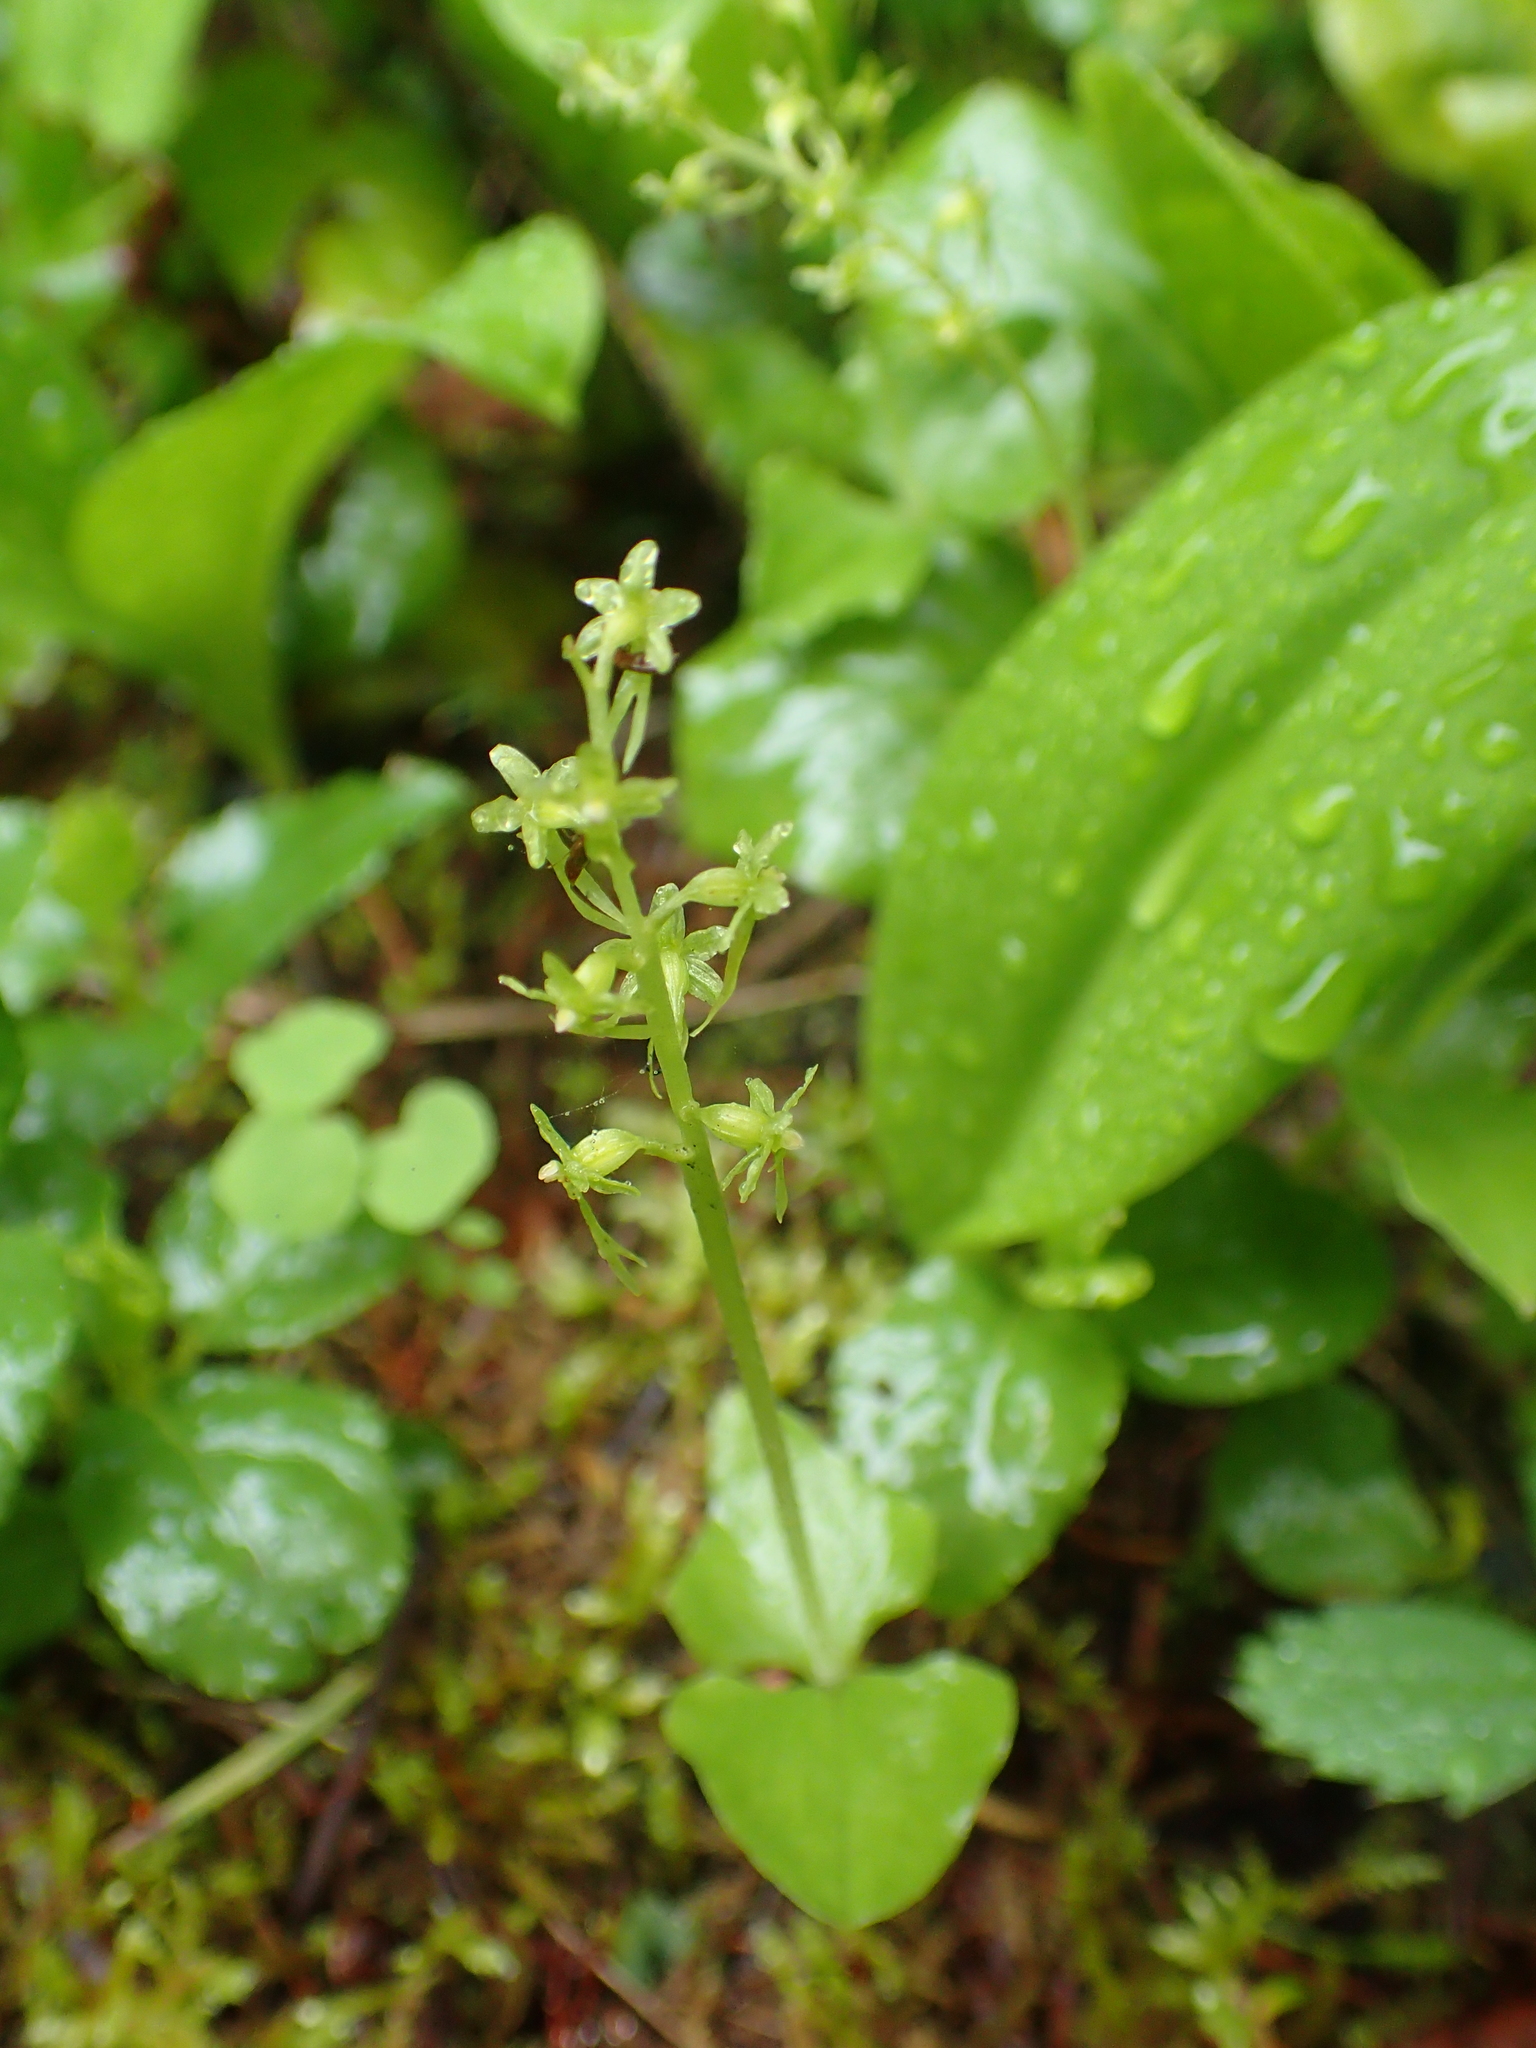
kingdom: Plantae
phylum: Tracheophyta
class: Liliopsida
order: Asparagales
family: Orchidaceae
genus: Neottia
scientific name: Neottia cordata
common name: Lesser twayblade
